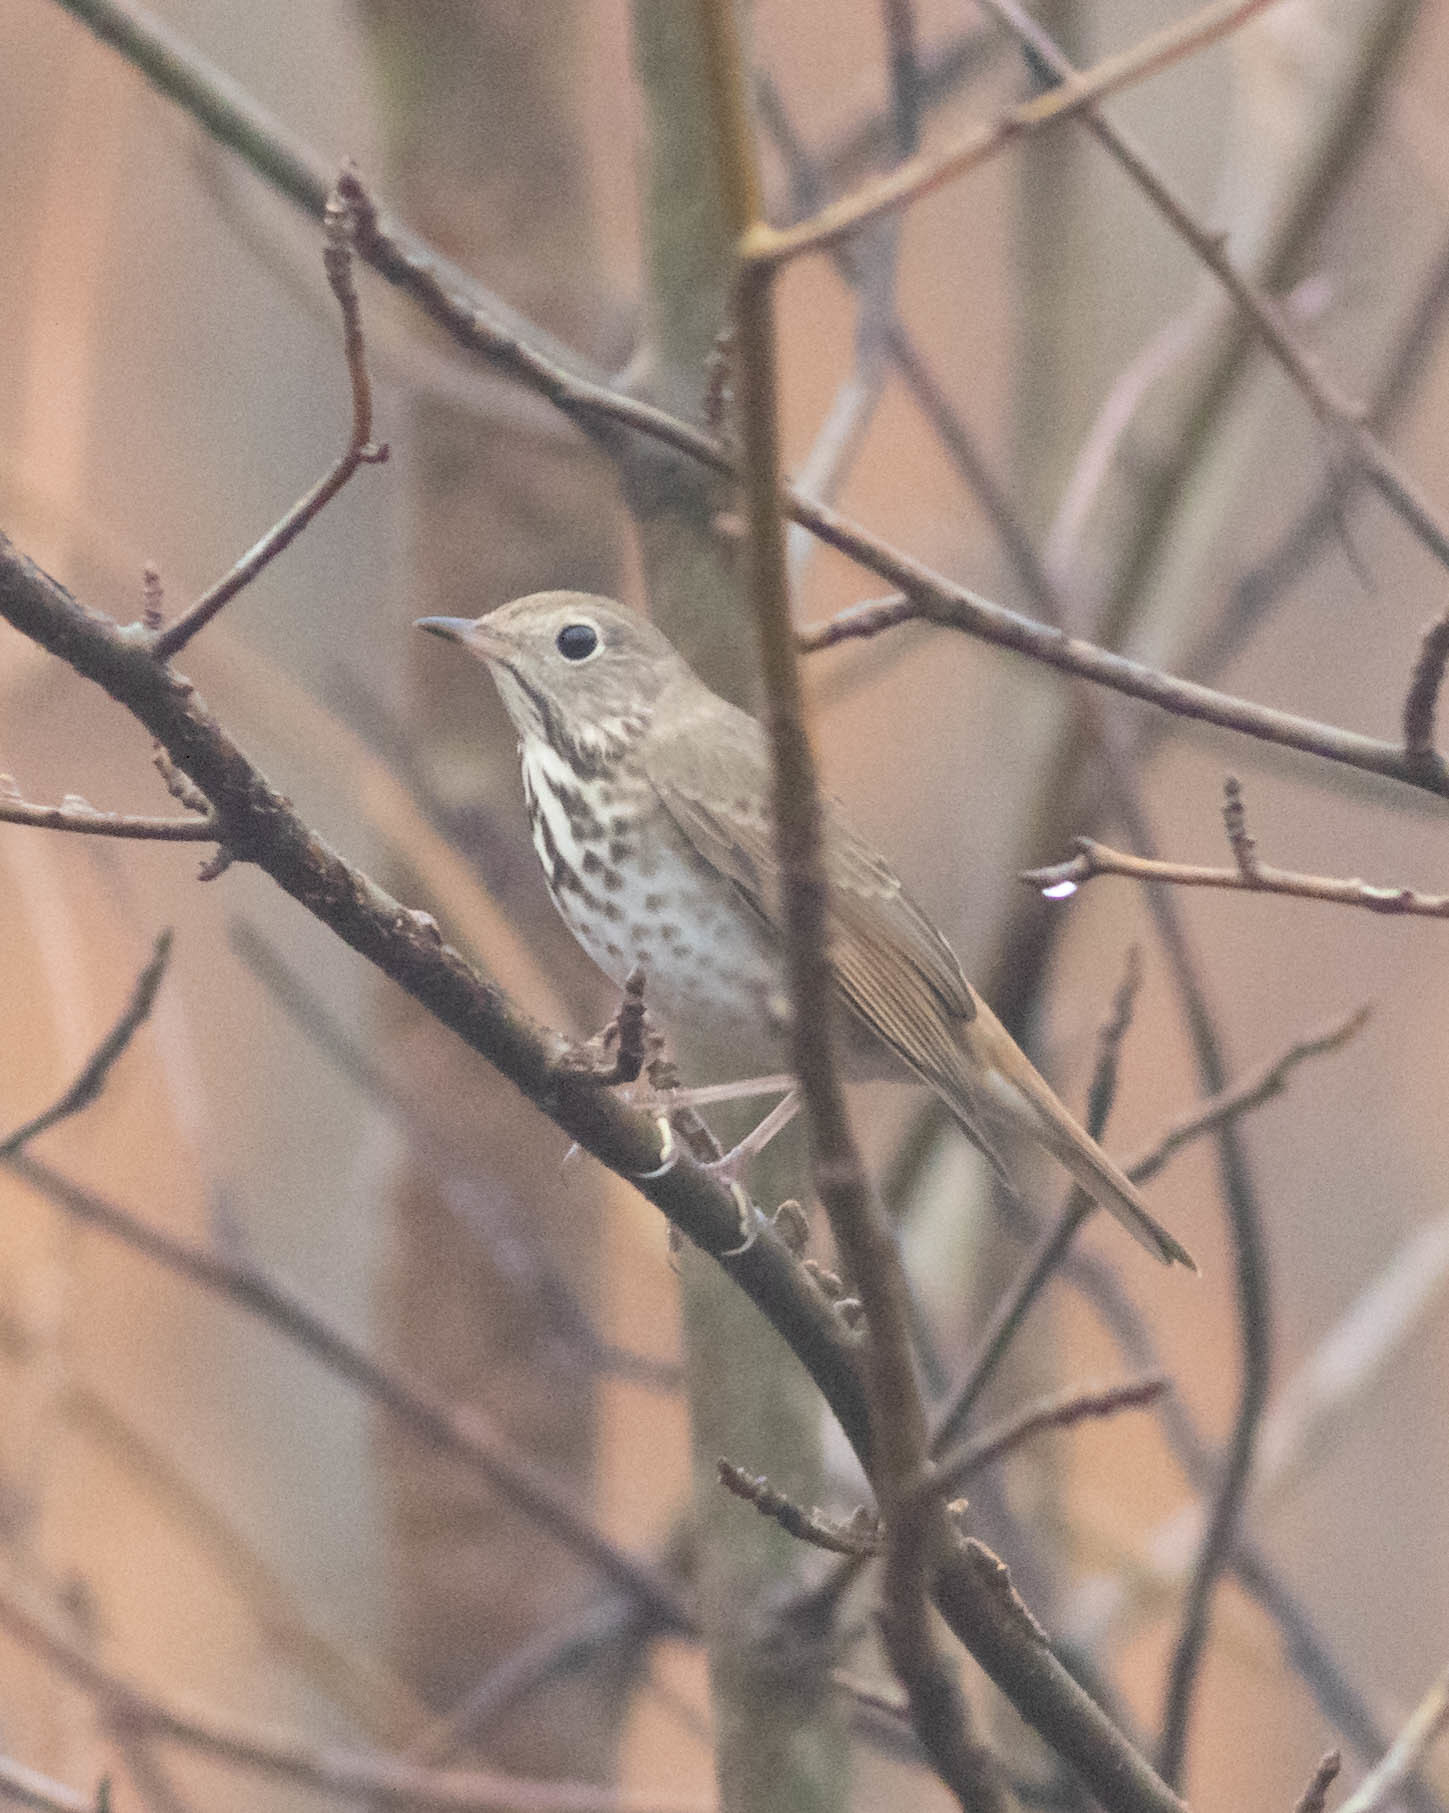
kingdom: Animalia
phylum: Chordata
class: Aves
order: Passeriformes
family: Turdidae
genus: Catharus
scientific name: Catharus guttatus
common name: Hermit thrush
